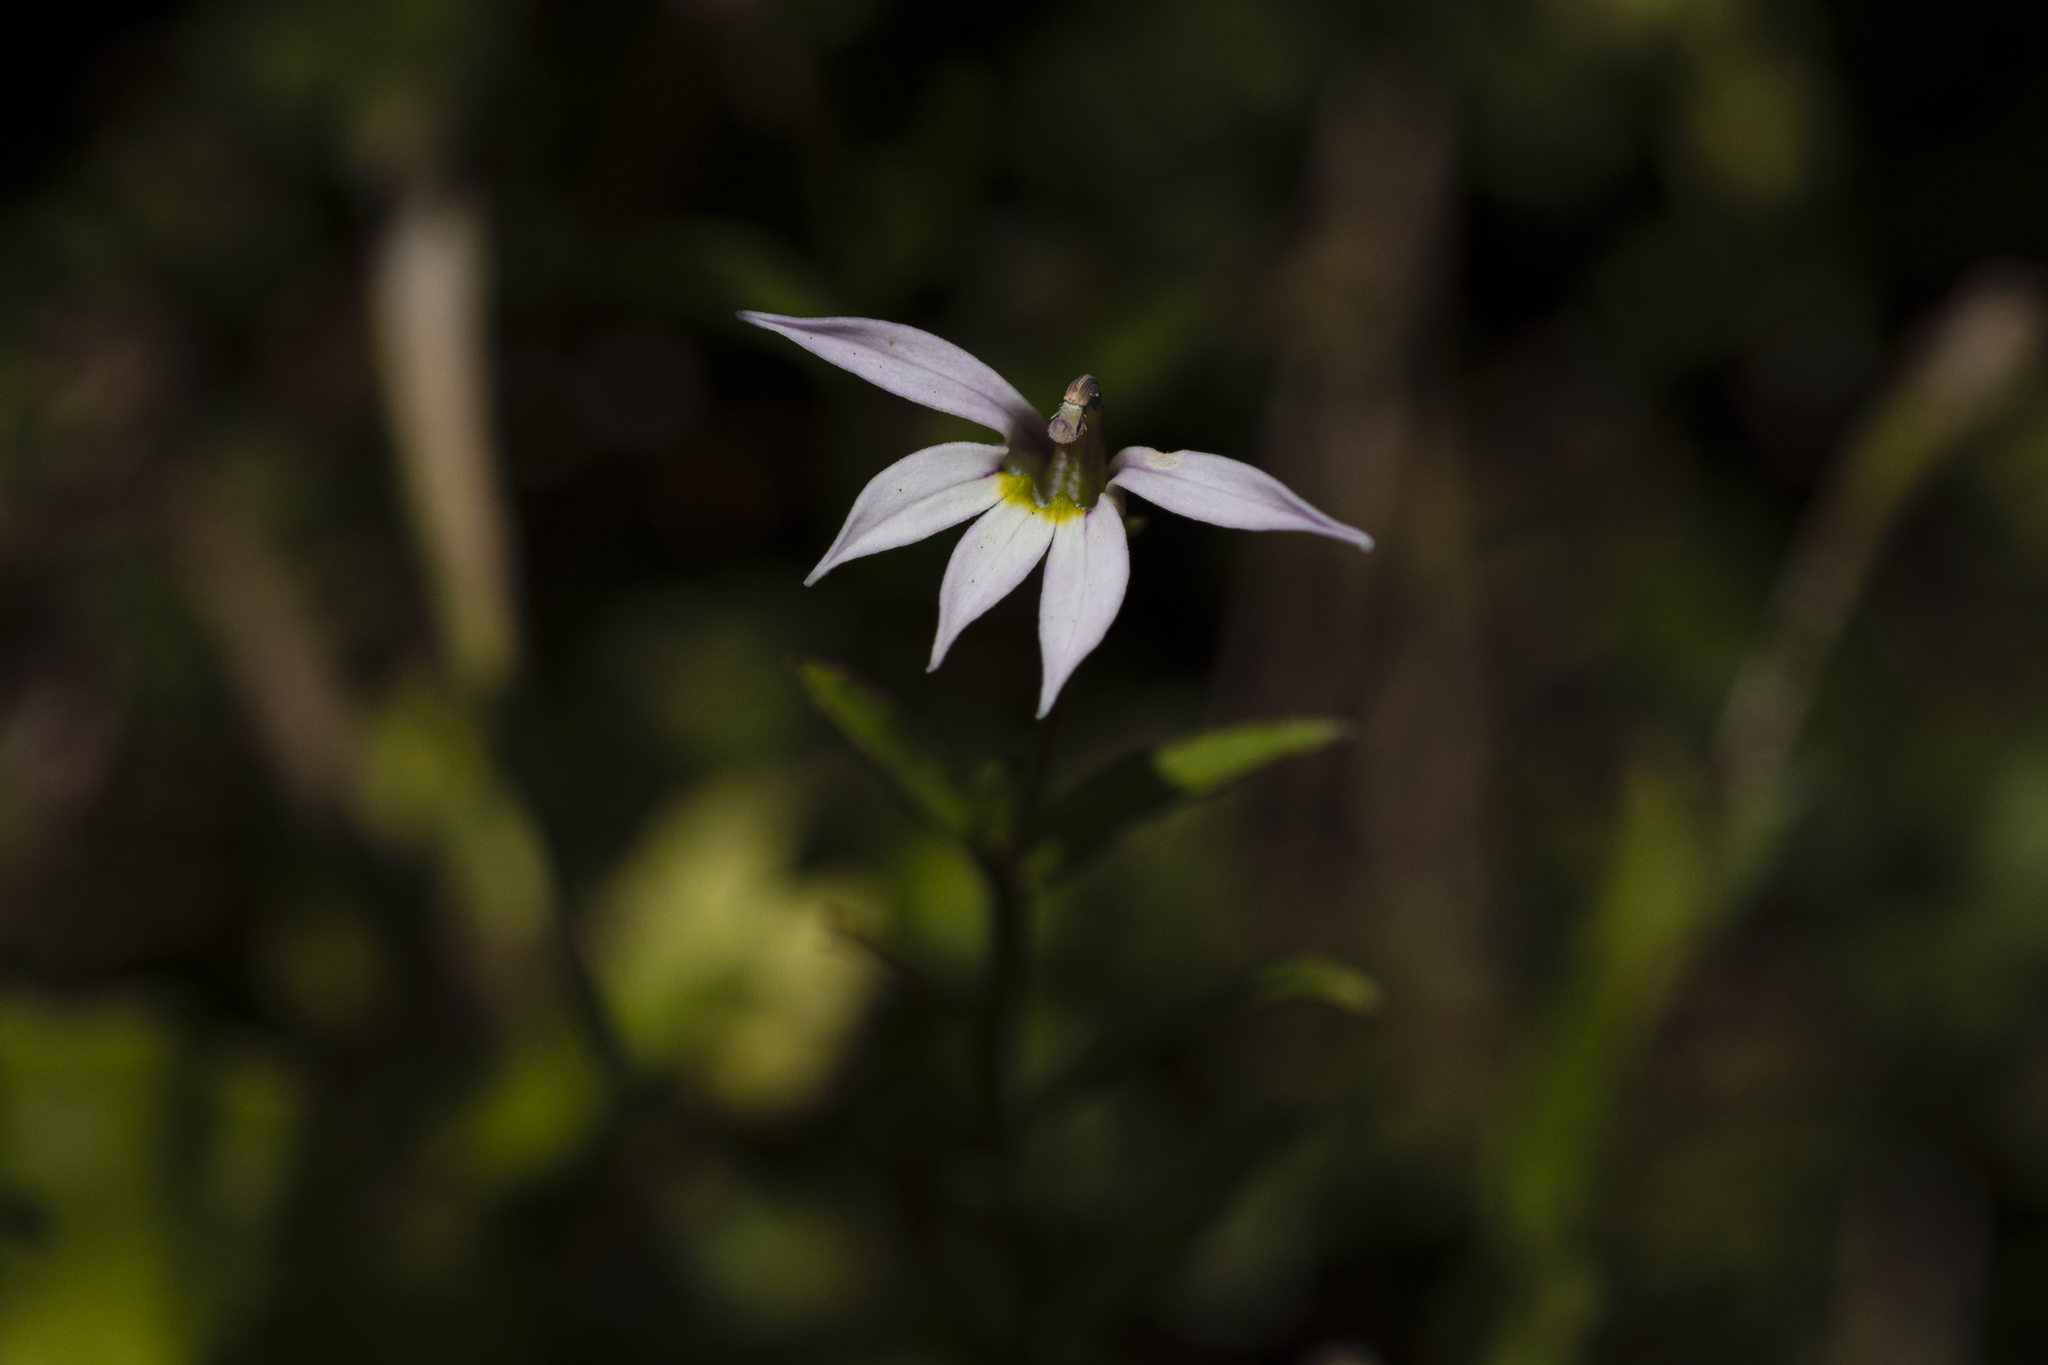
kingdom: Plantae
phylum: Tracheophyta
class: Magnoliopsida
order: Asterales
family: Campanulaceae
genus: Lobelia
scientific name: Lobelia chinensis
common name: Chinese lobelia
